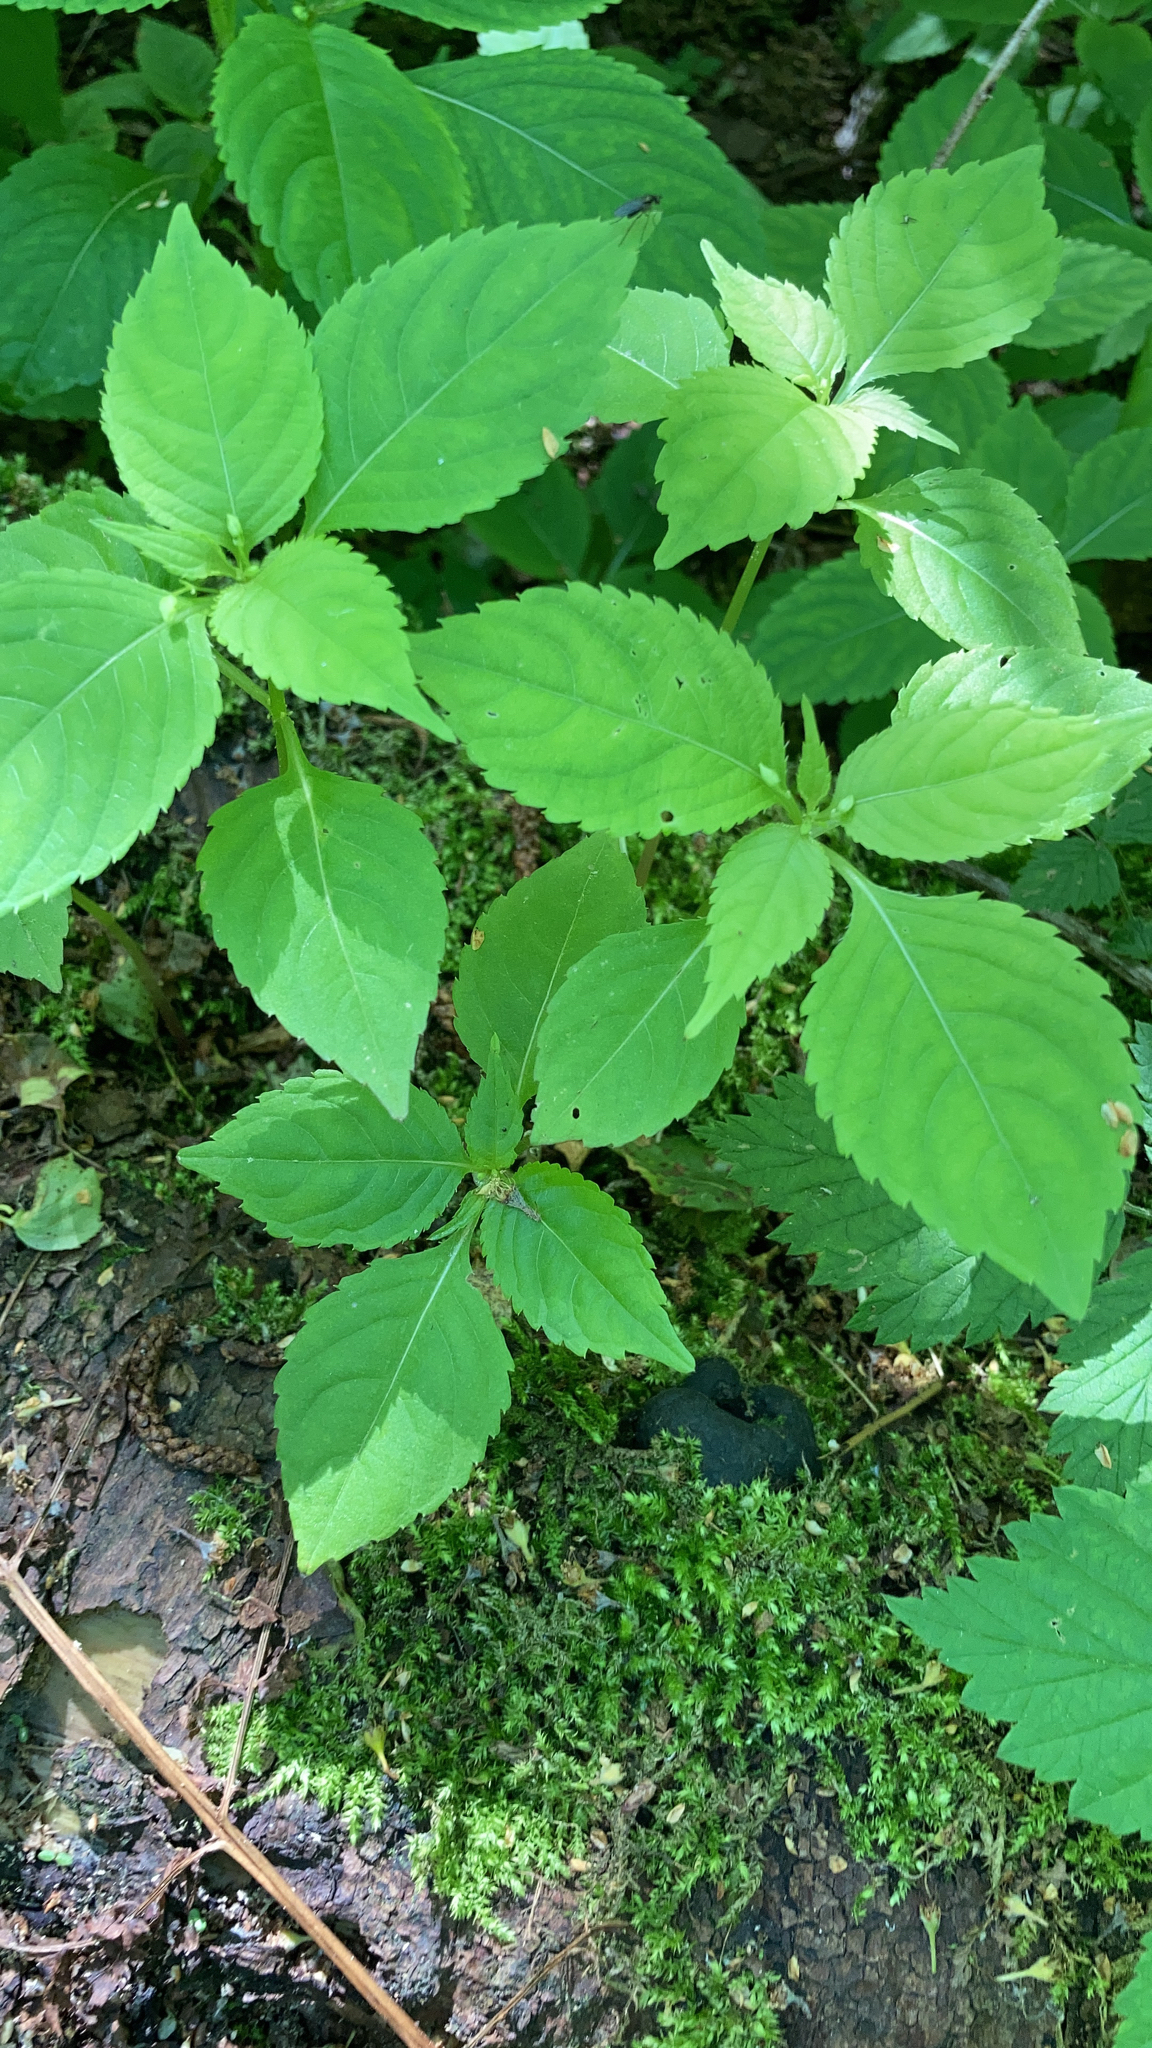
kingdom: Plantae
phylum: Tracheophyta
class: Magnoliopsida
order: Ericales
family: Balsaminaceae
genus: Impatiens
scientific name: Impatiens parviflora
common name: Small balsam
